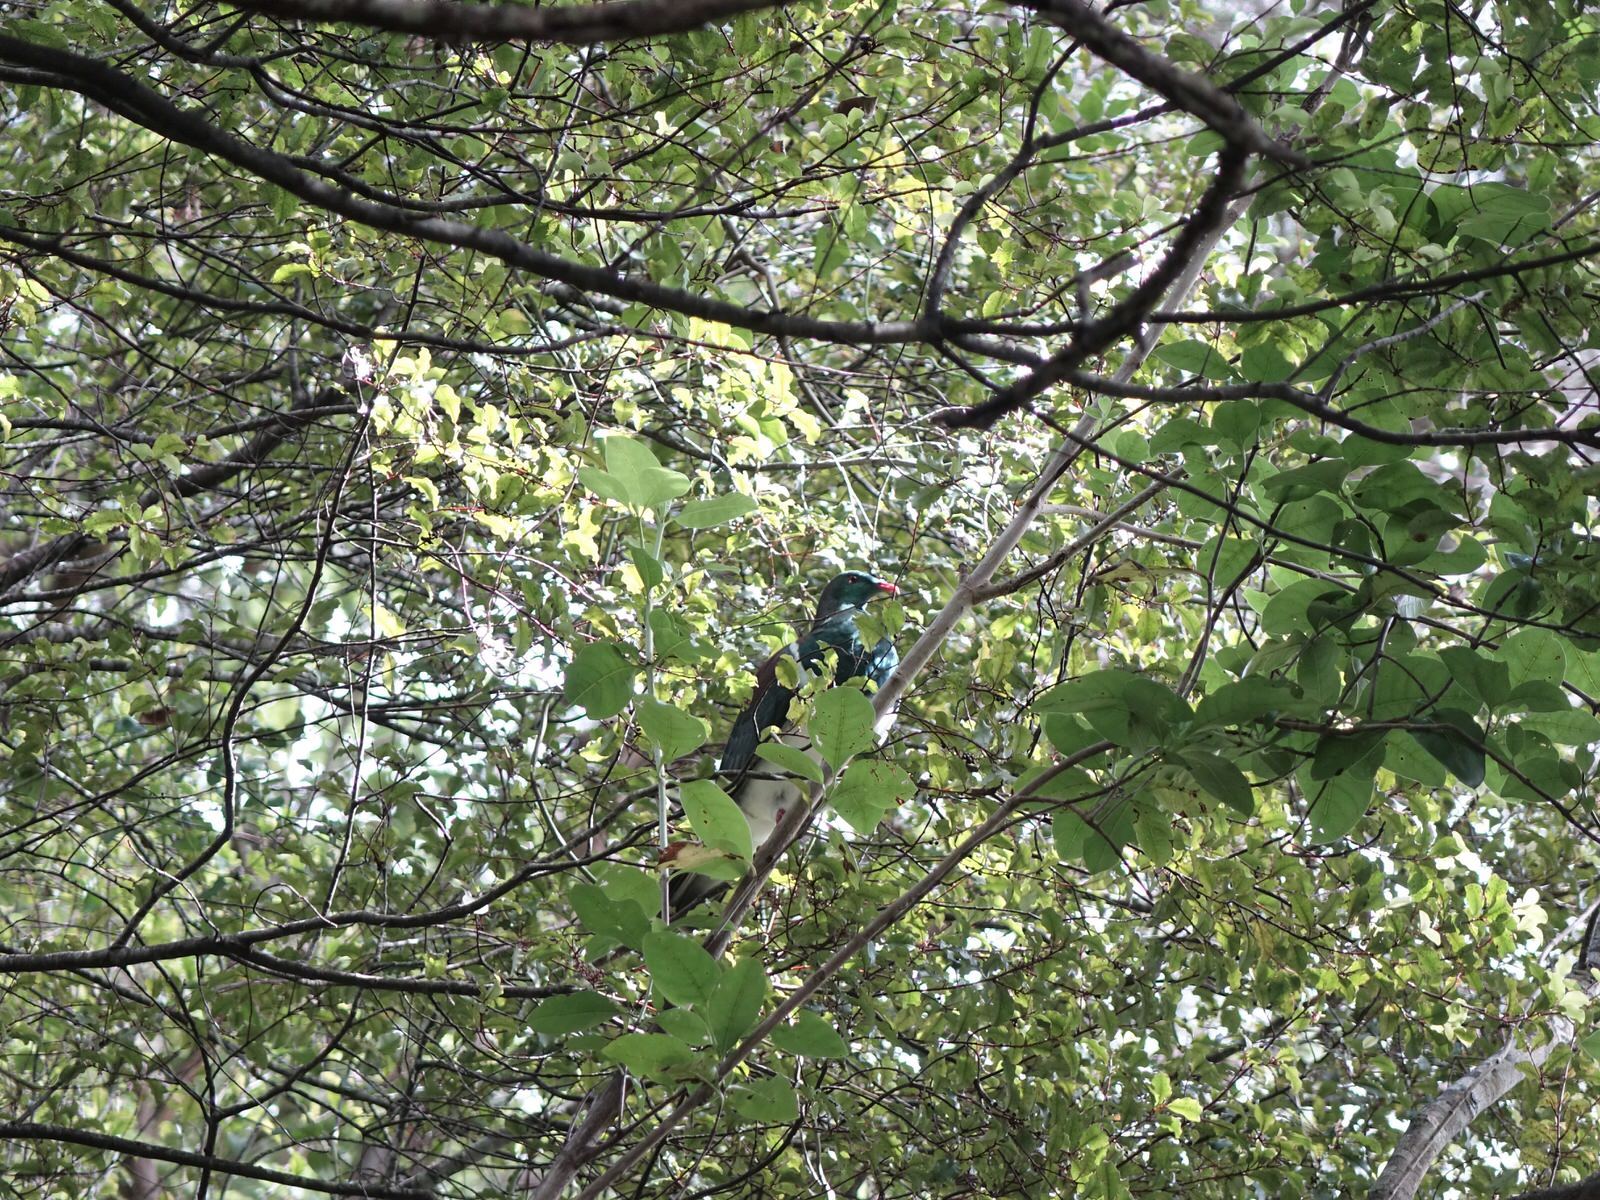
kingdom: Animalia
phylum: Chordata
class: Aves
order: Columbiformes
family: Columbidae
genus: Hemiphaga
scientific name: Hemiphaga novaeseelandiae
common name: New zealand pigeon
